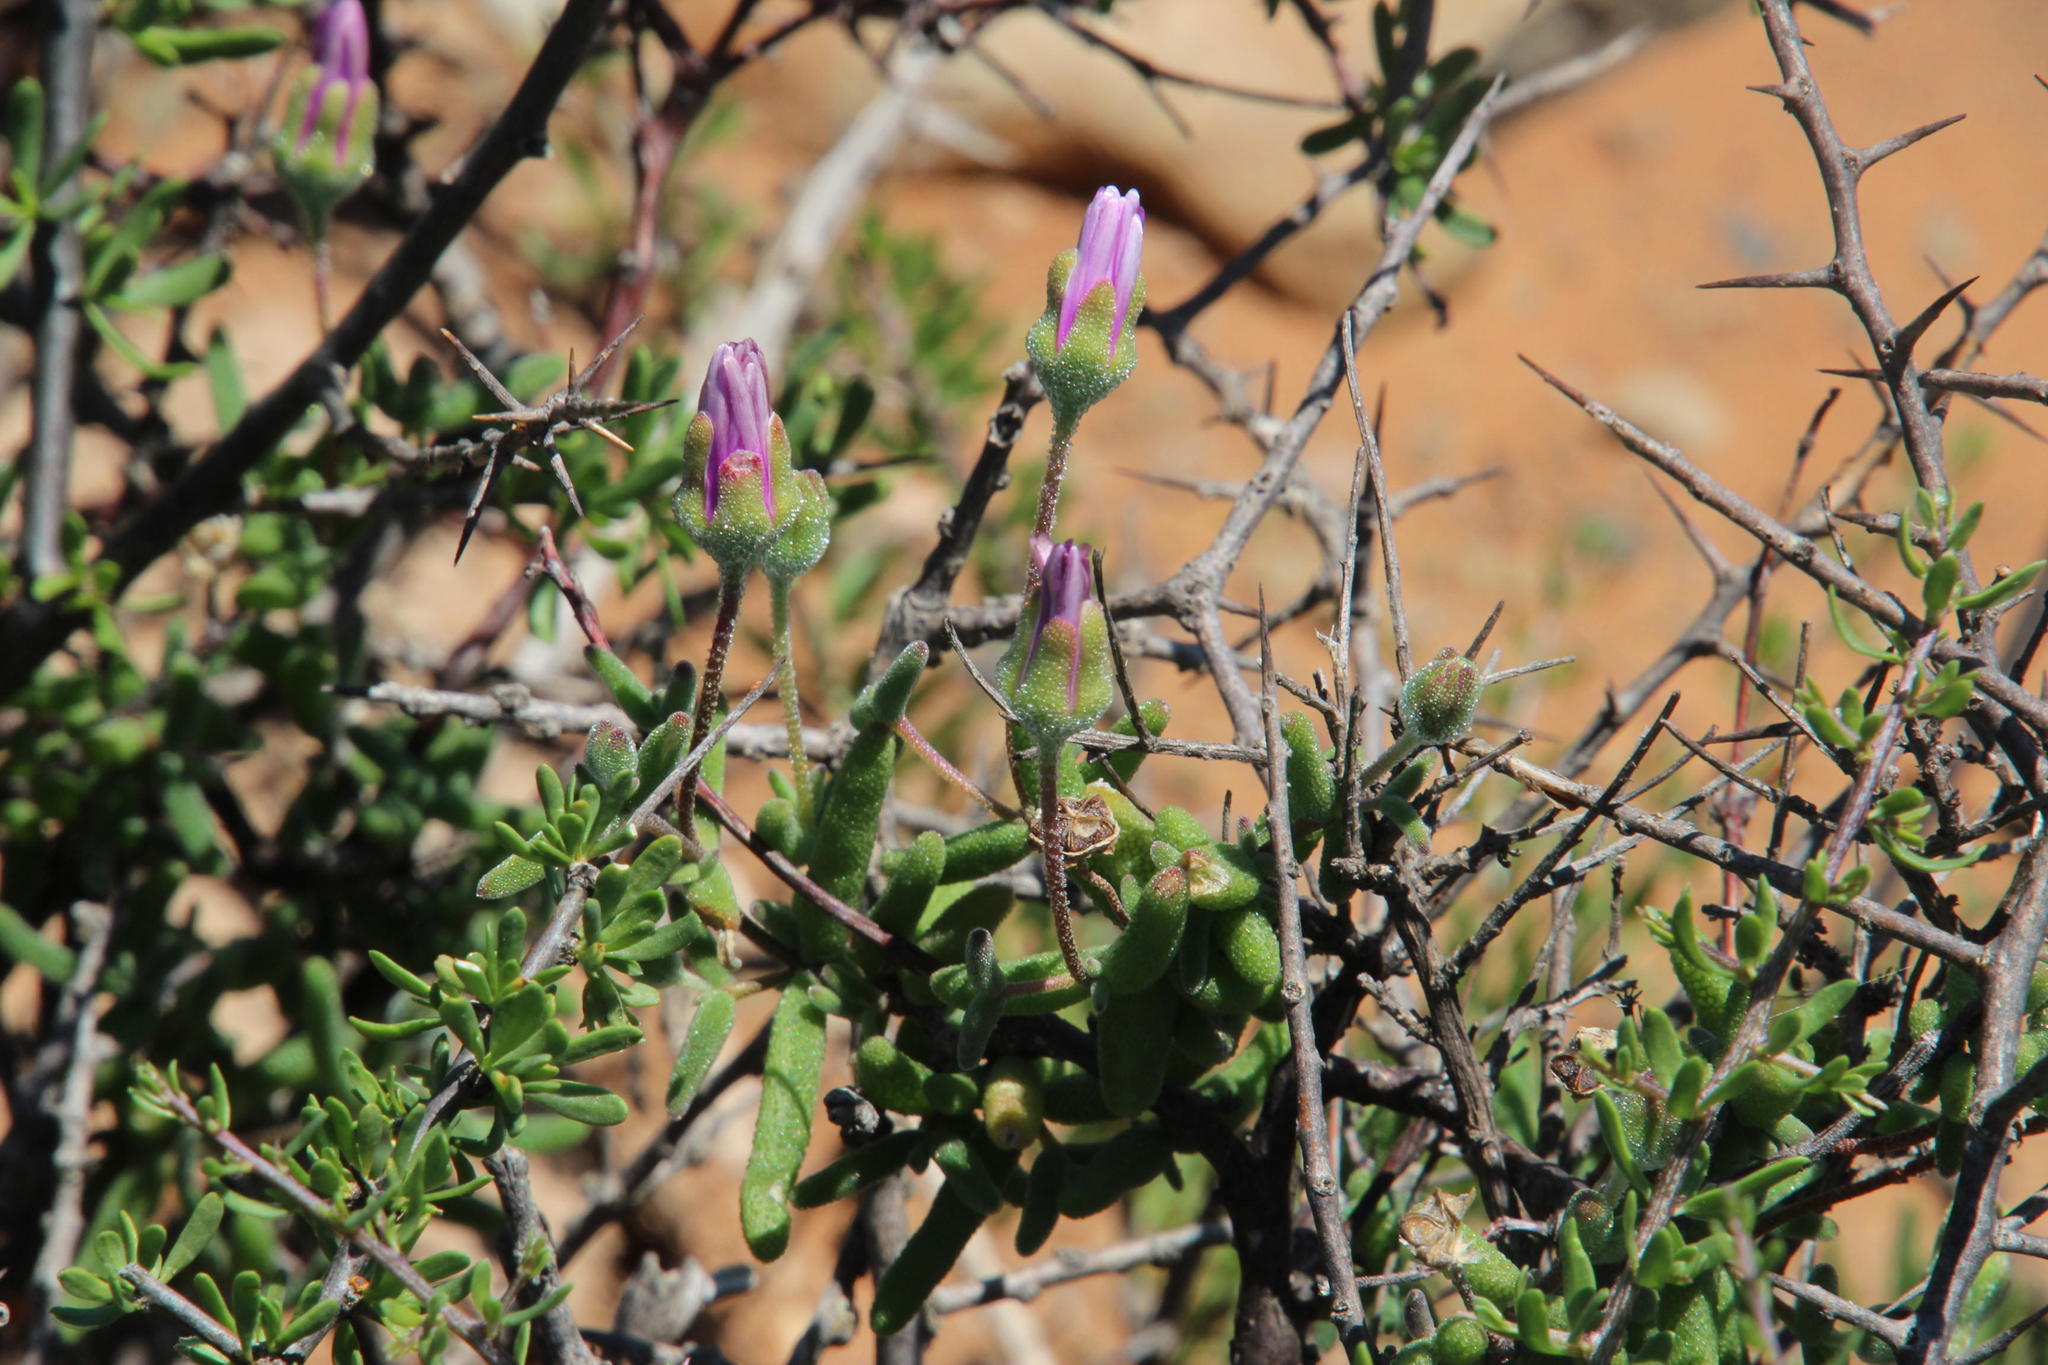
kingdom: Plantae
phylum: Tracheophyta
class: Magnoliopsida
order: Caryophyllales
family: Aizoaceae
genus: Drosanthemum
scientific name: Drosanthemum lique
